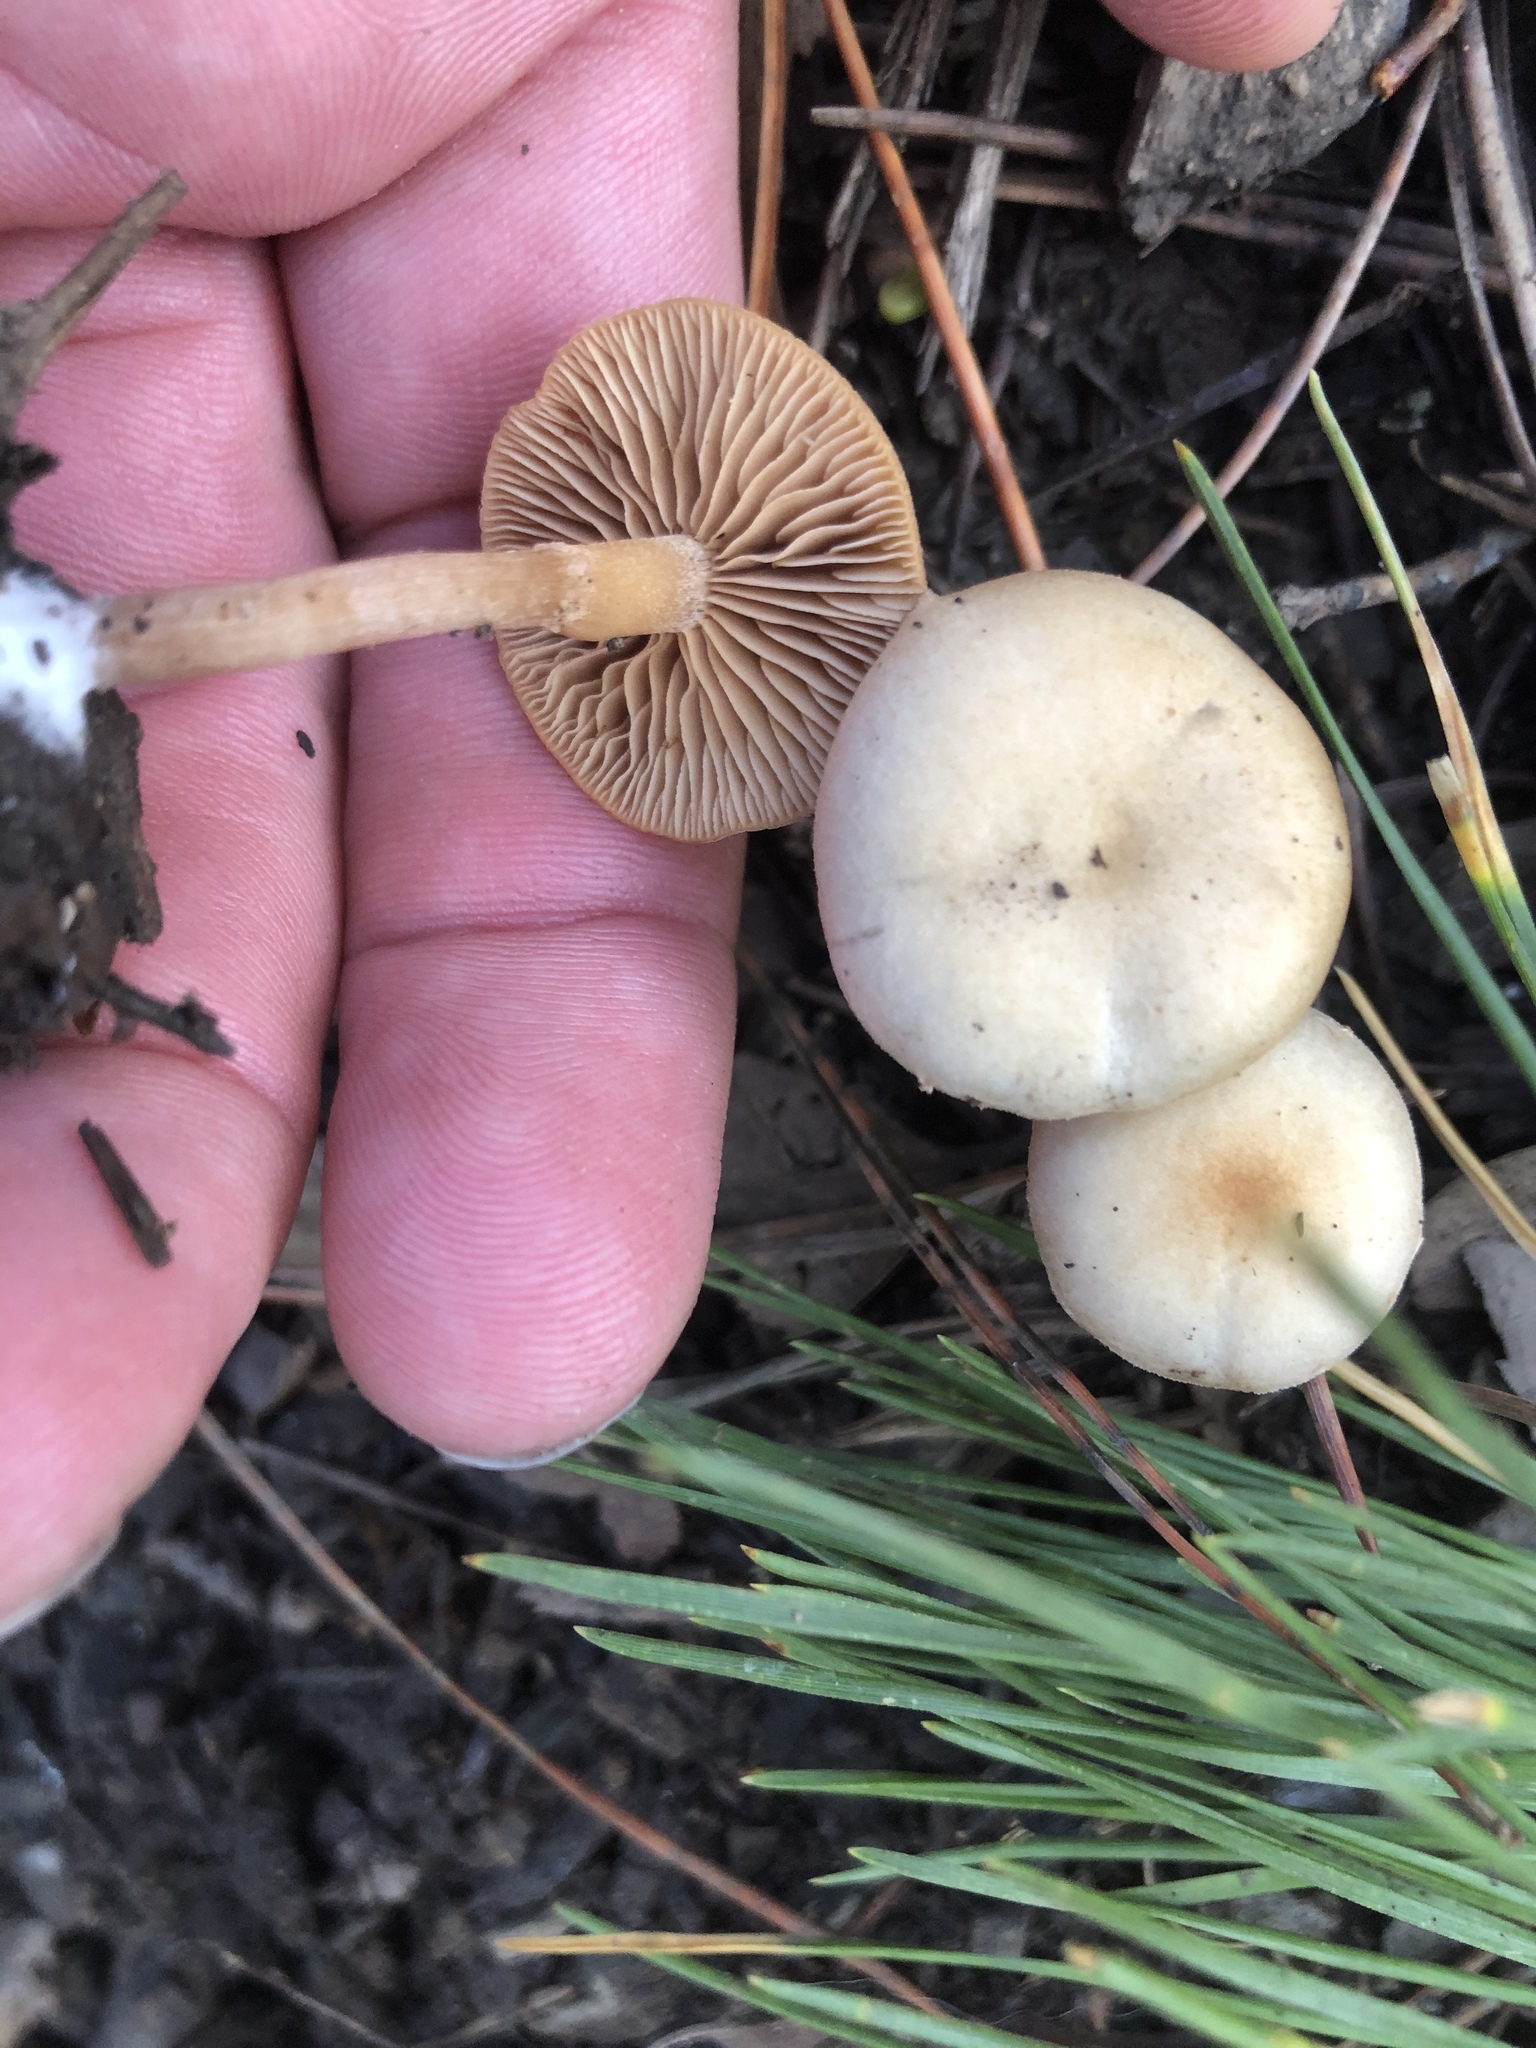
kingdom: Fungi
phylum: Basidiomycota
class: Agaricomycetes
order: Agaricales
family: Tubariaceae
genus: Tubaria
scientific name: Tubaria furfuracea
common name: Scurfy twiglet
